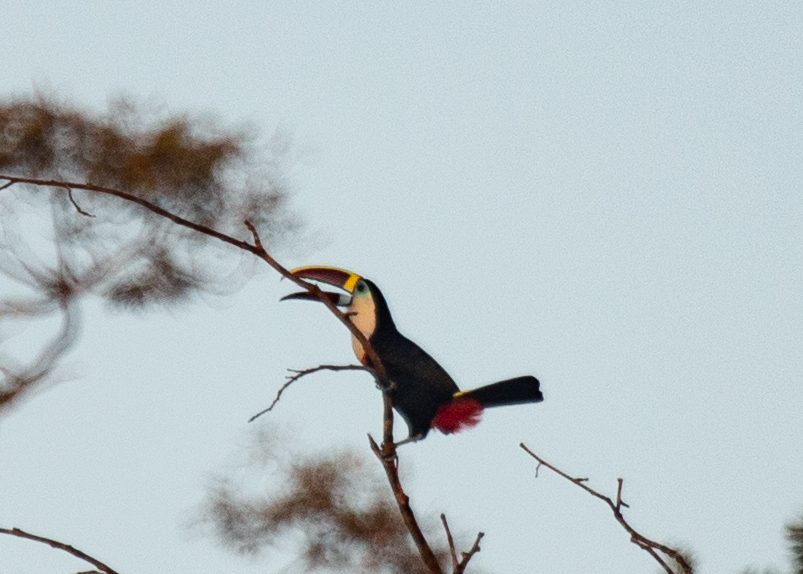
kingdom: Animalia
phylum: Chordata
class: Aves
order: Piciformes
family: Ramphastidae
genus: Ramphastos
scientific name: Ramphastos tucanus
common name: White-throated toucan
